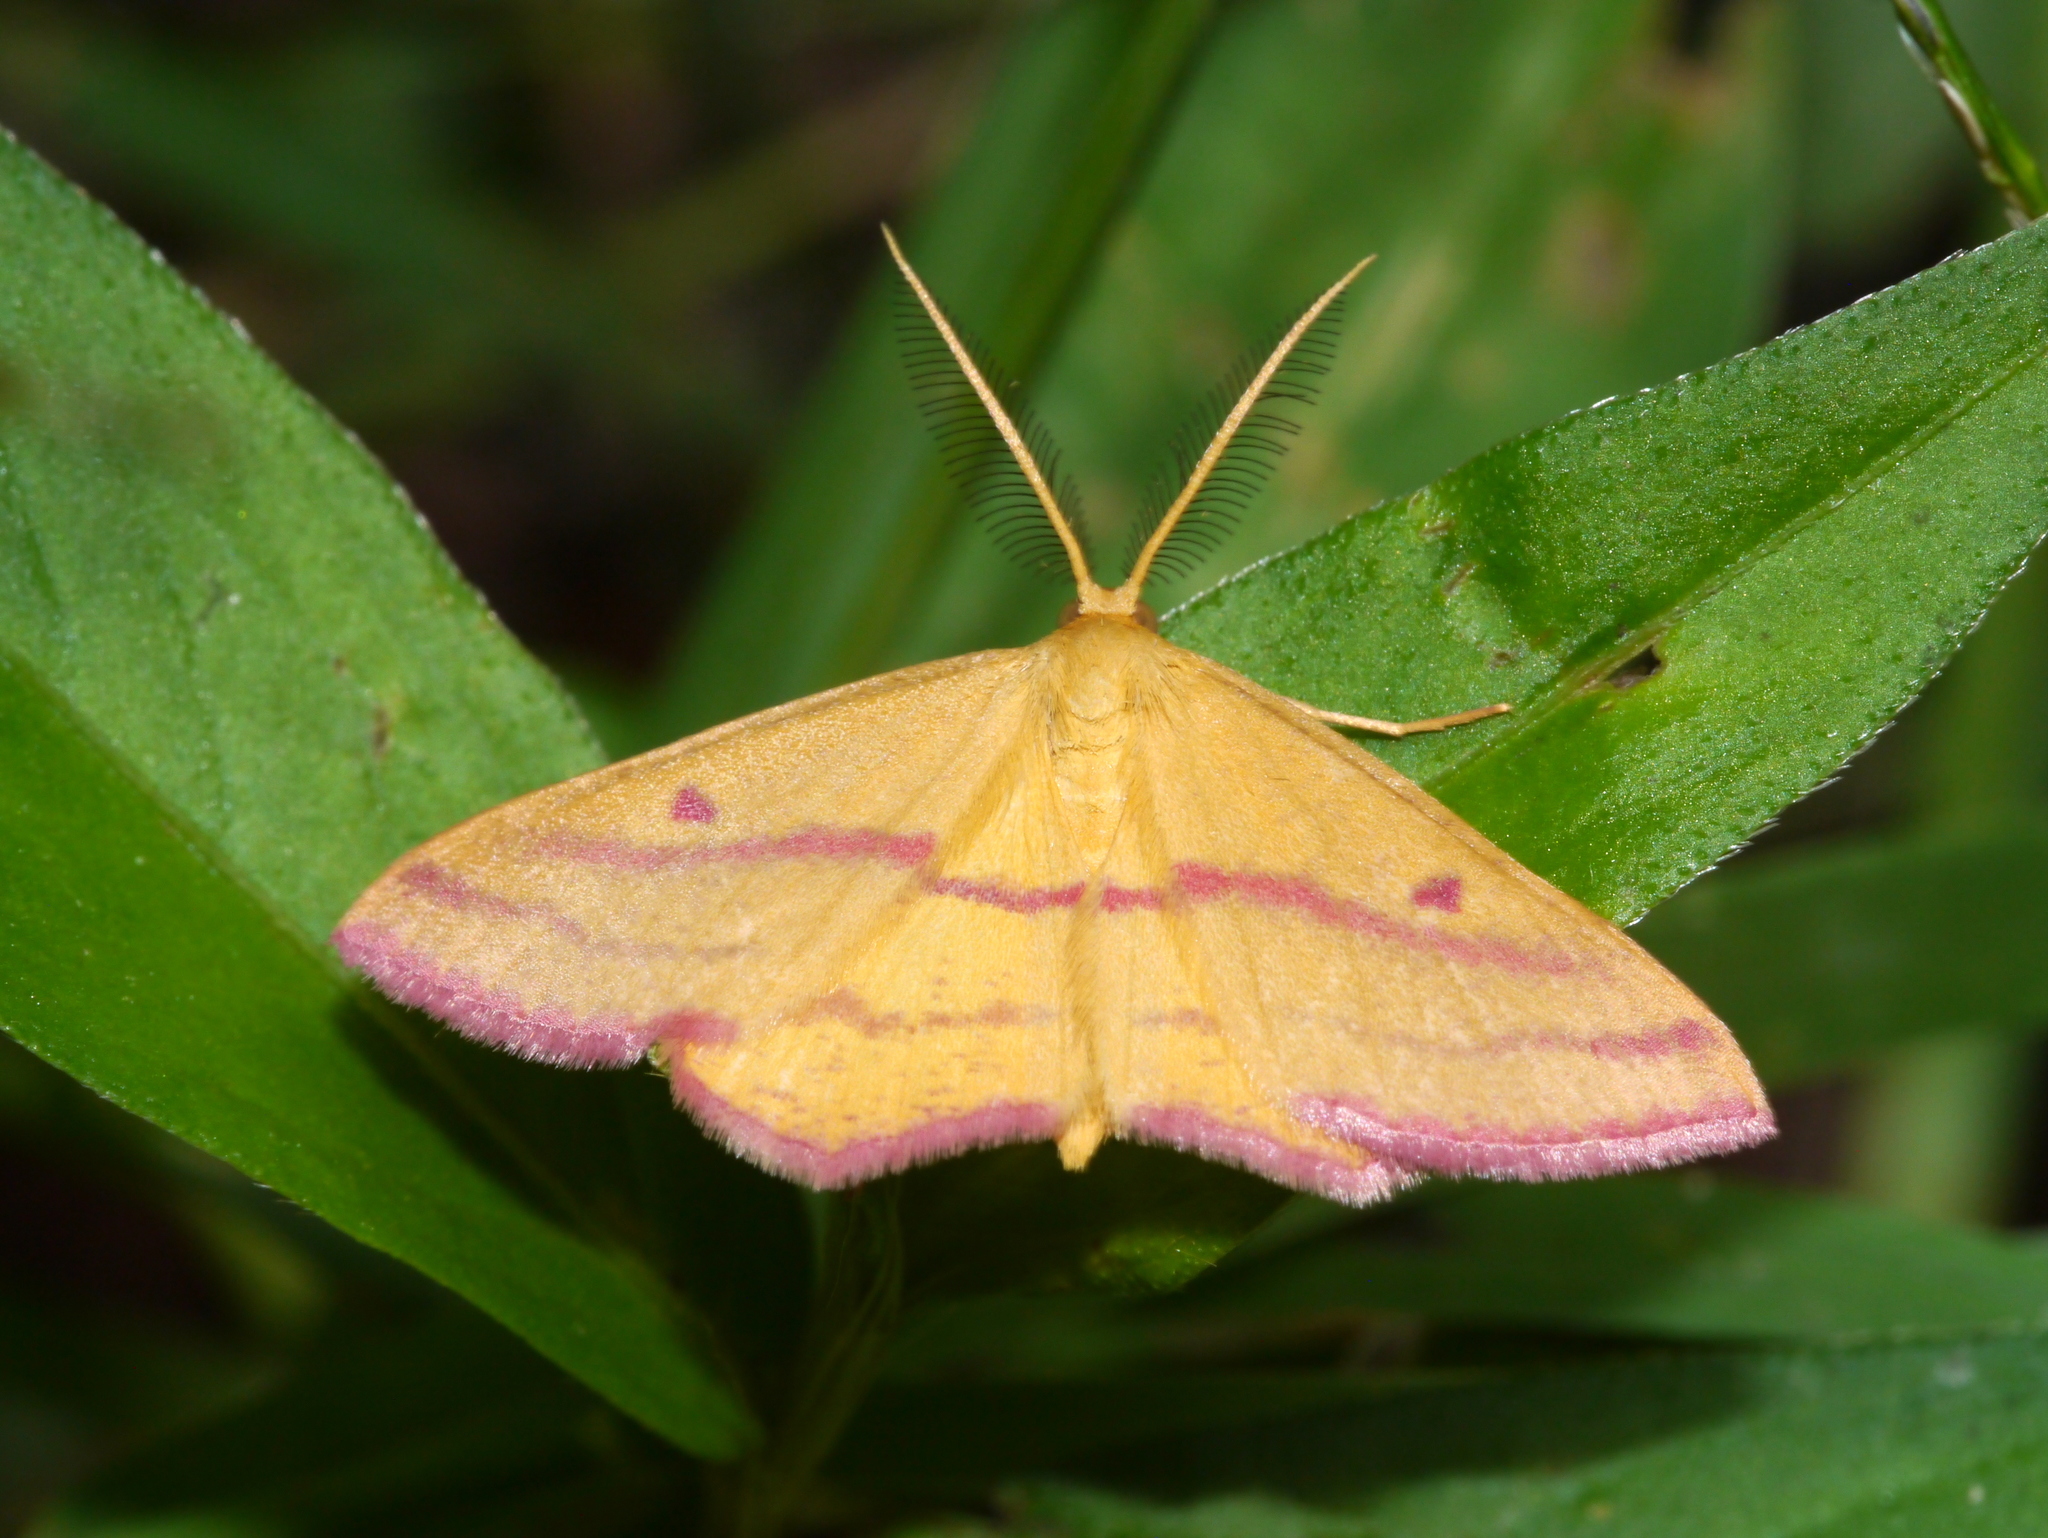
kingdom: Animalia
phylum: Arthropoda
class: Insecta
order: Lepidoptera
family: Geometridae
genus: Haematopis
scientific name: Haematopis grataria
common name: Chickweed geometer
